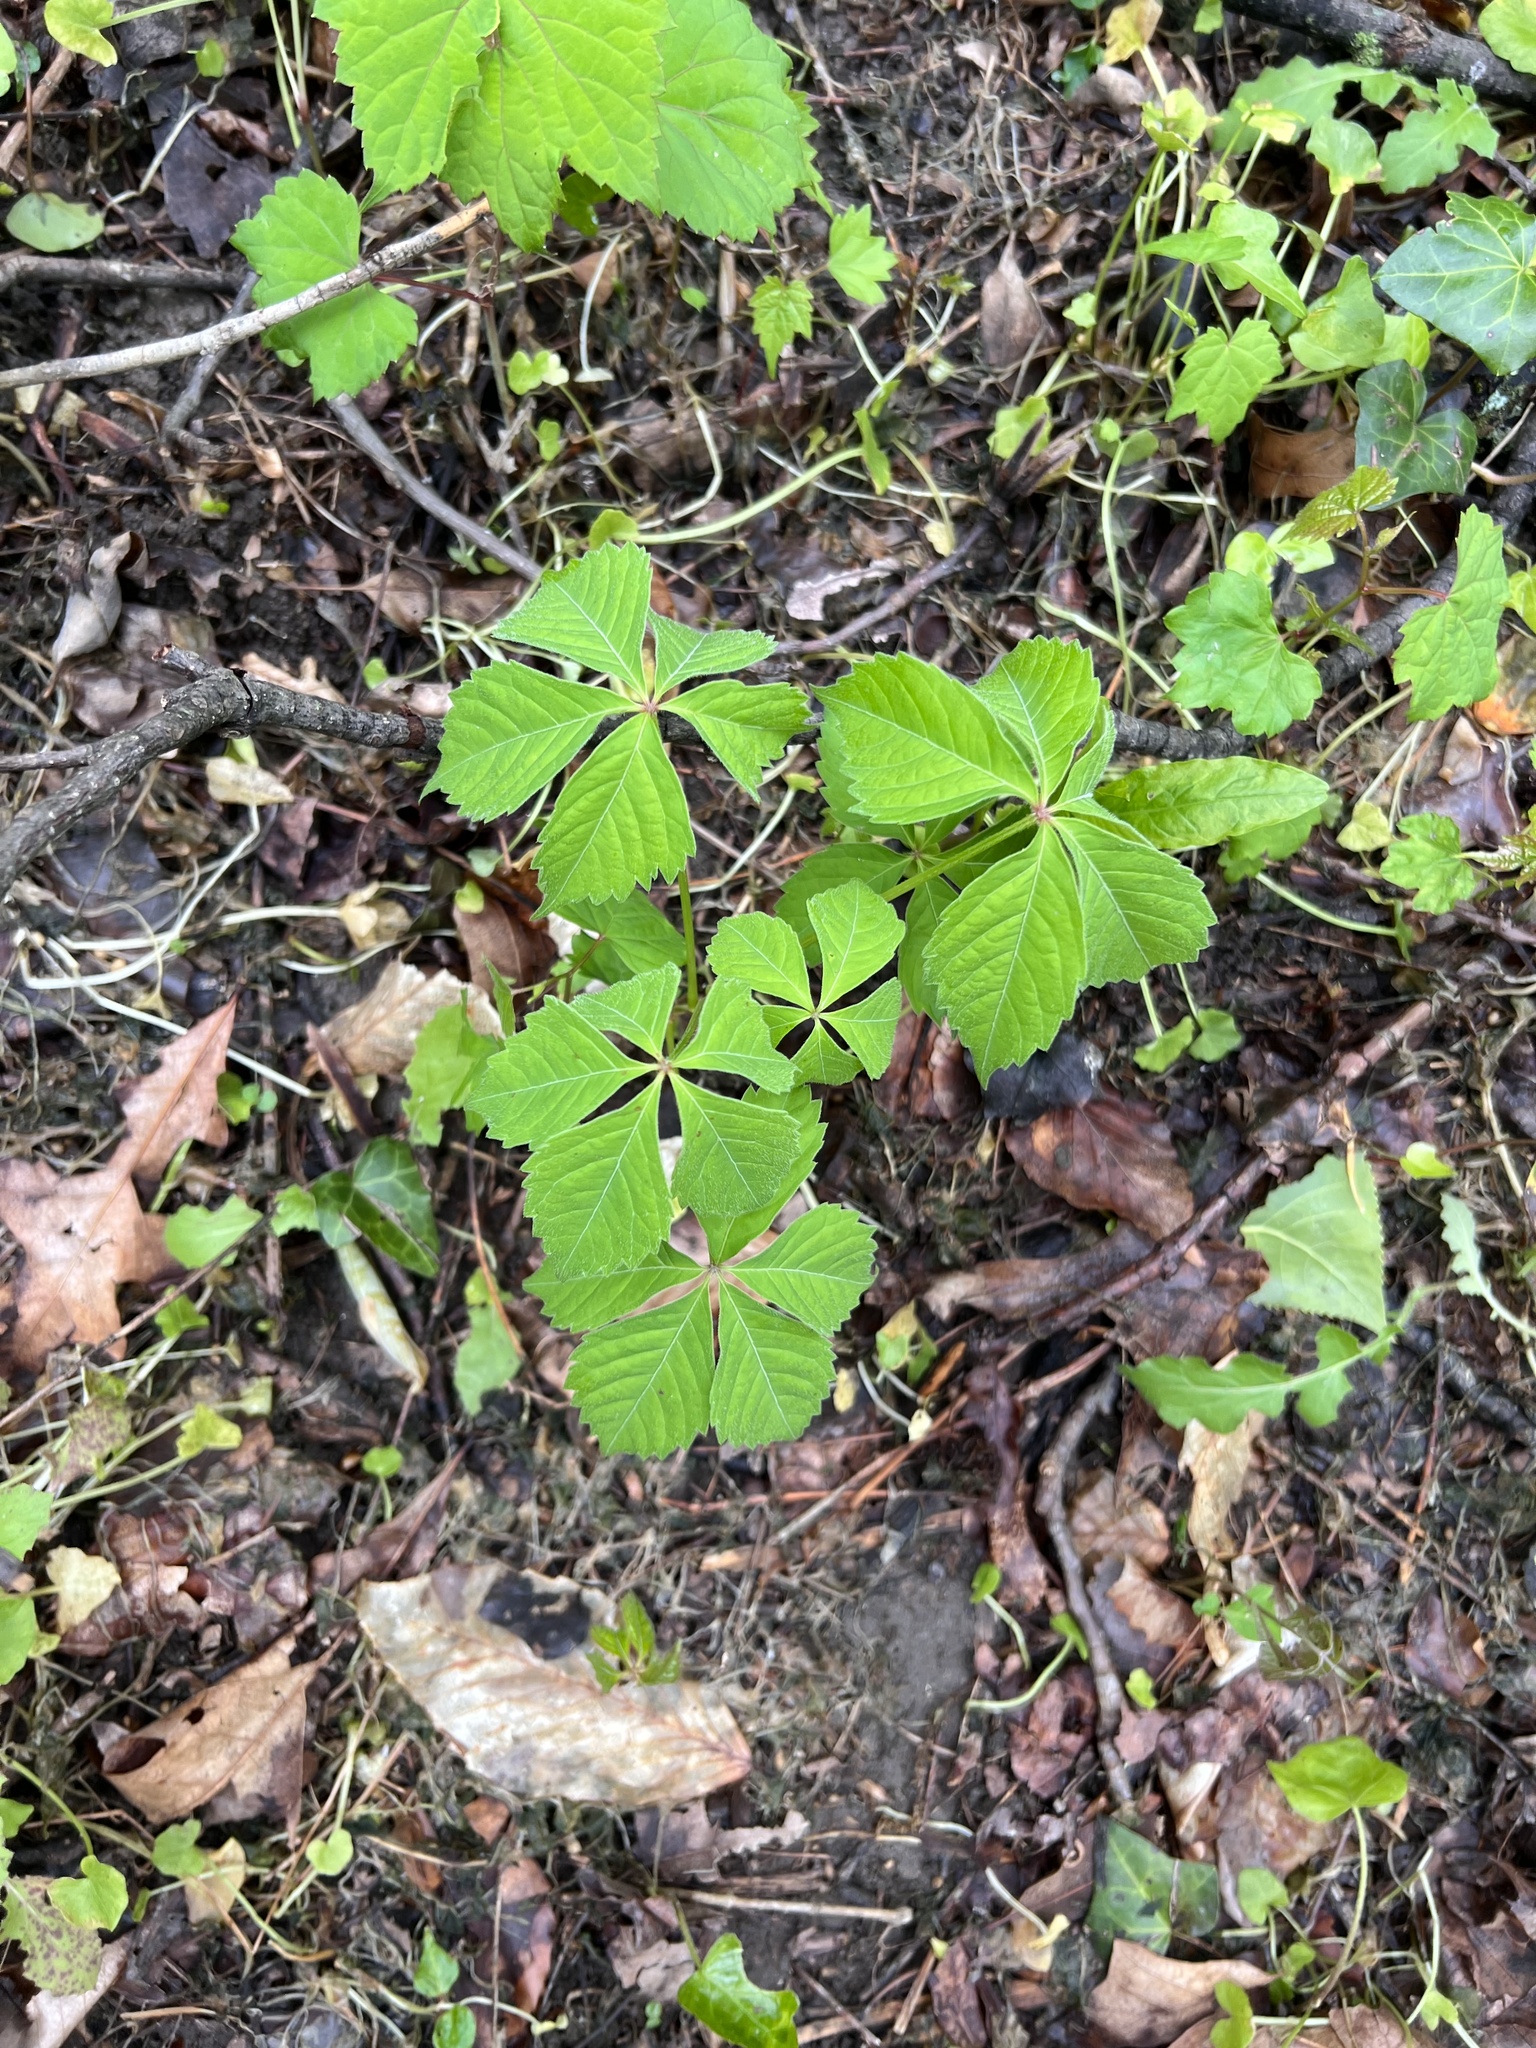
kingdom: Plantae
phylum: Tracheophyta
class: Magnoliopsida
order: Vitales
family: Vitaceae
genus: Parthenocissus
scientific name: Parthenocissus quinquefolia
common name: Virginia-creeper
